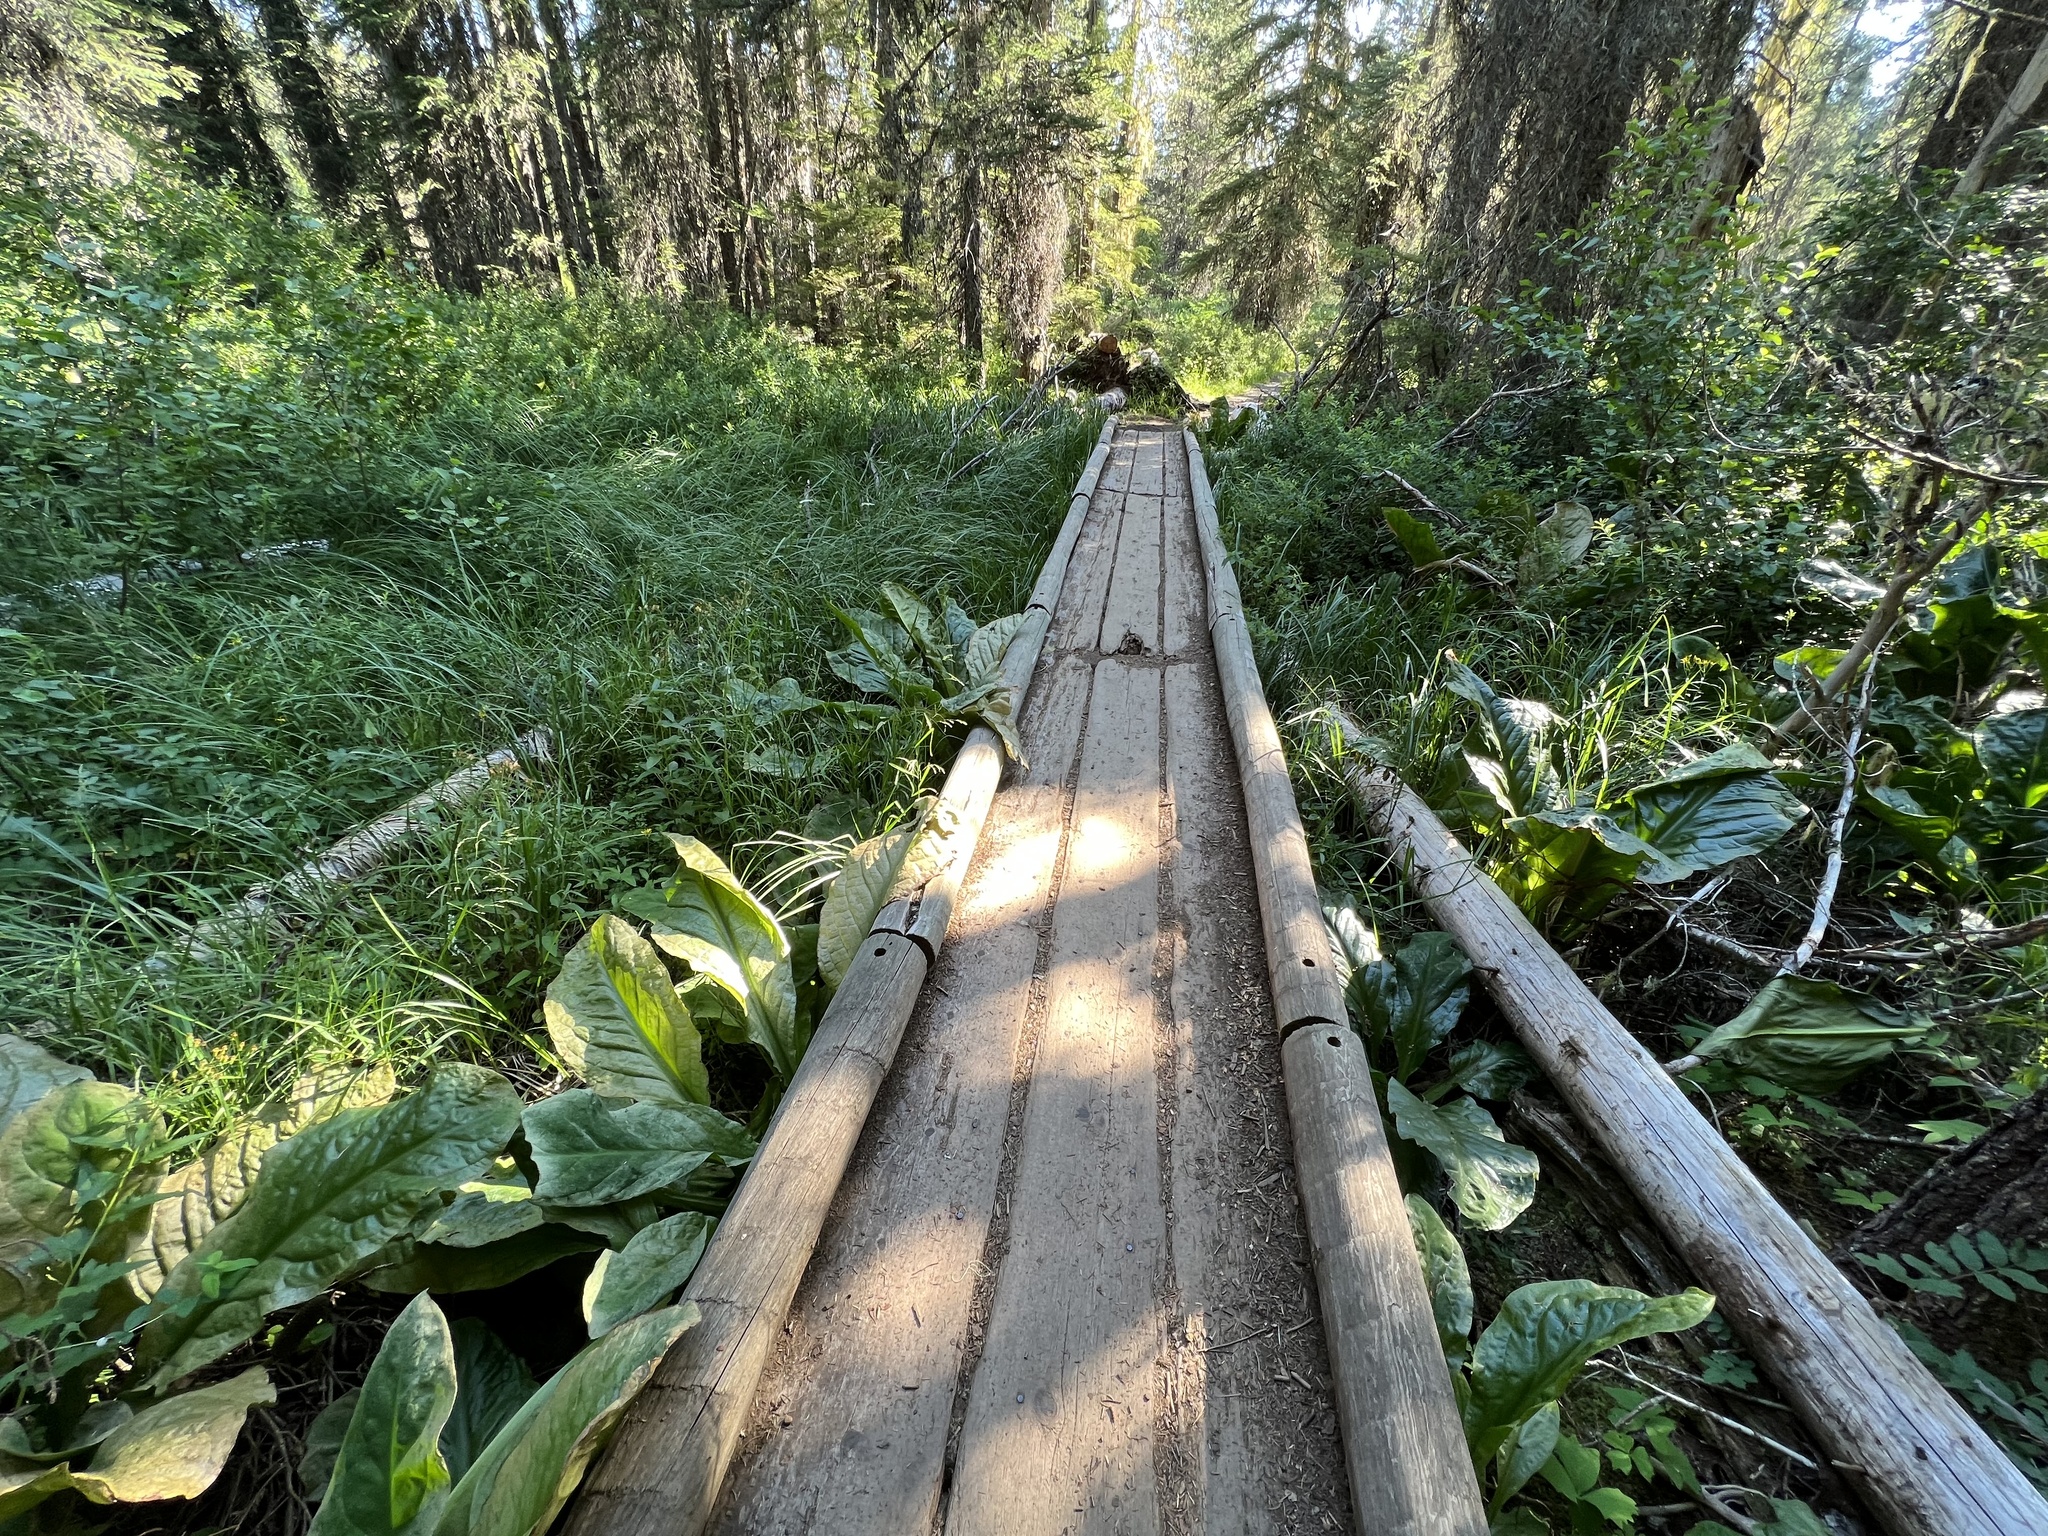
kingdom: Plantae
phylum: Tracheophyta
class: Liliopsida
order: Alismatales
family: Araceae
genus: Lysichiton
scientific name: Lysichiton americanus
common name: American skunk cabbage
